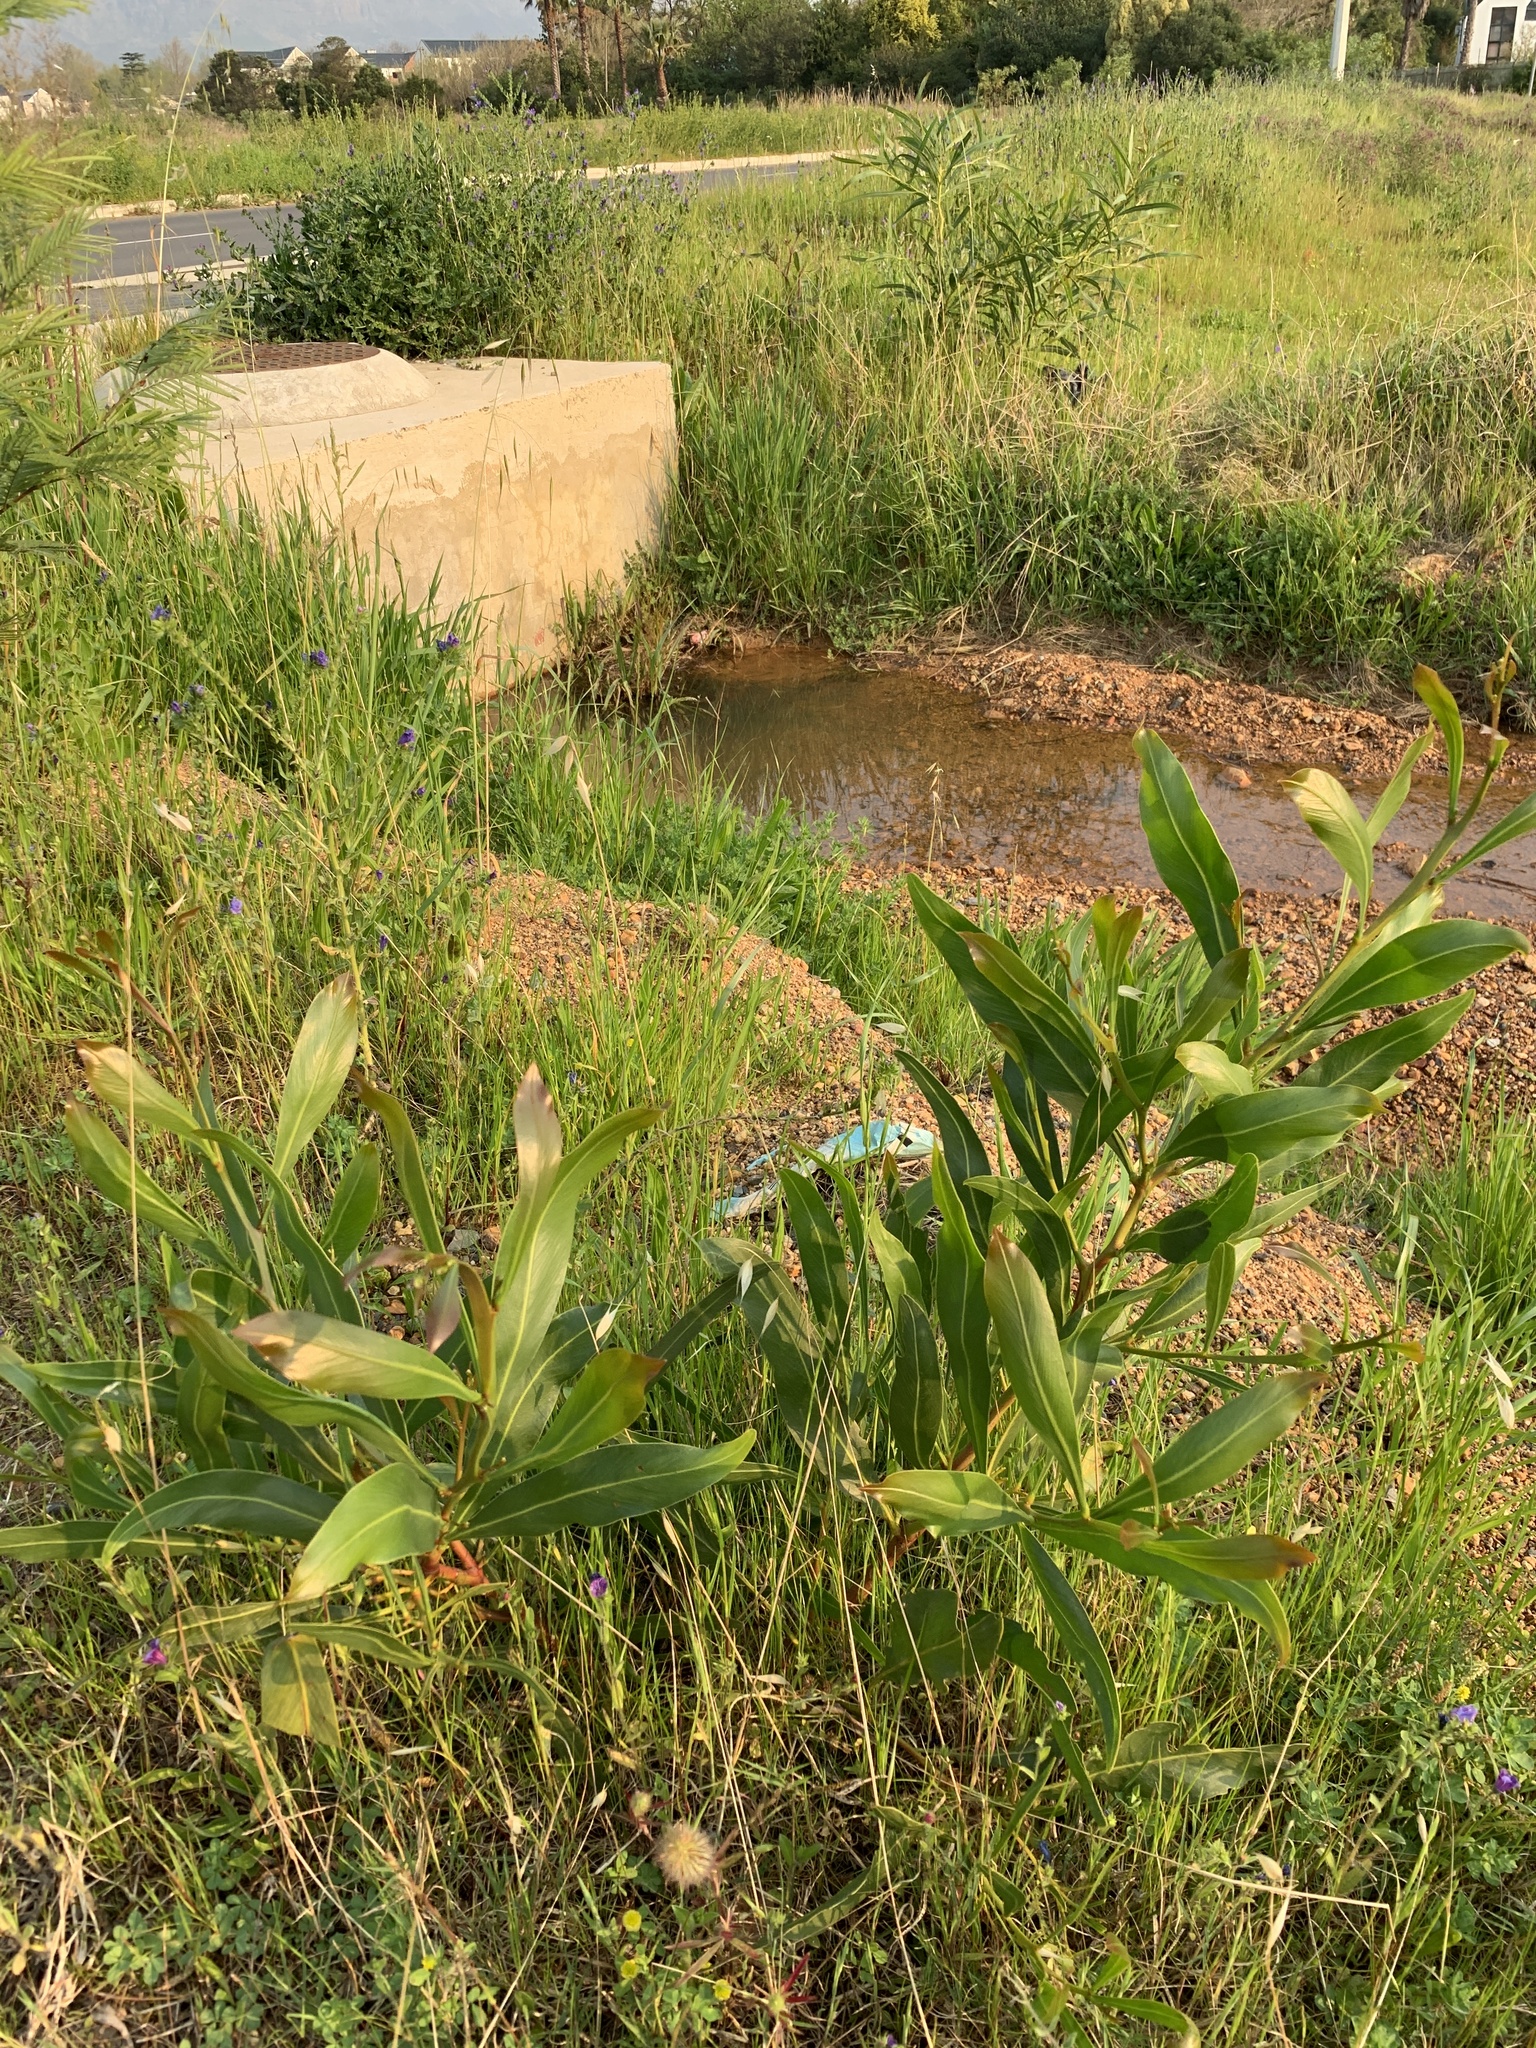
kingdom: Plantae
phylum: Tracheophyta
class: Magnoliopsida
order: Fabales
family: Fabaceae
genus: Acacia
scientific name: Acacia saligna
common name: Orange wattle
